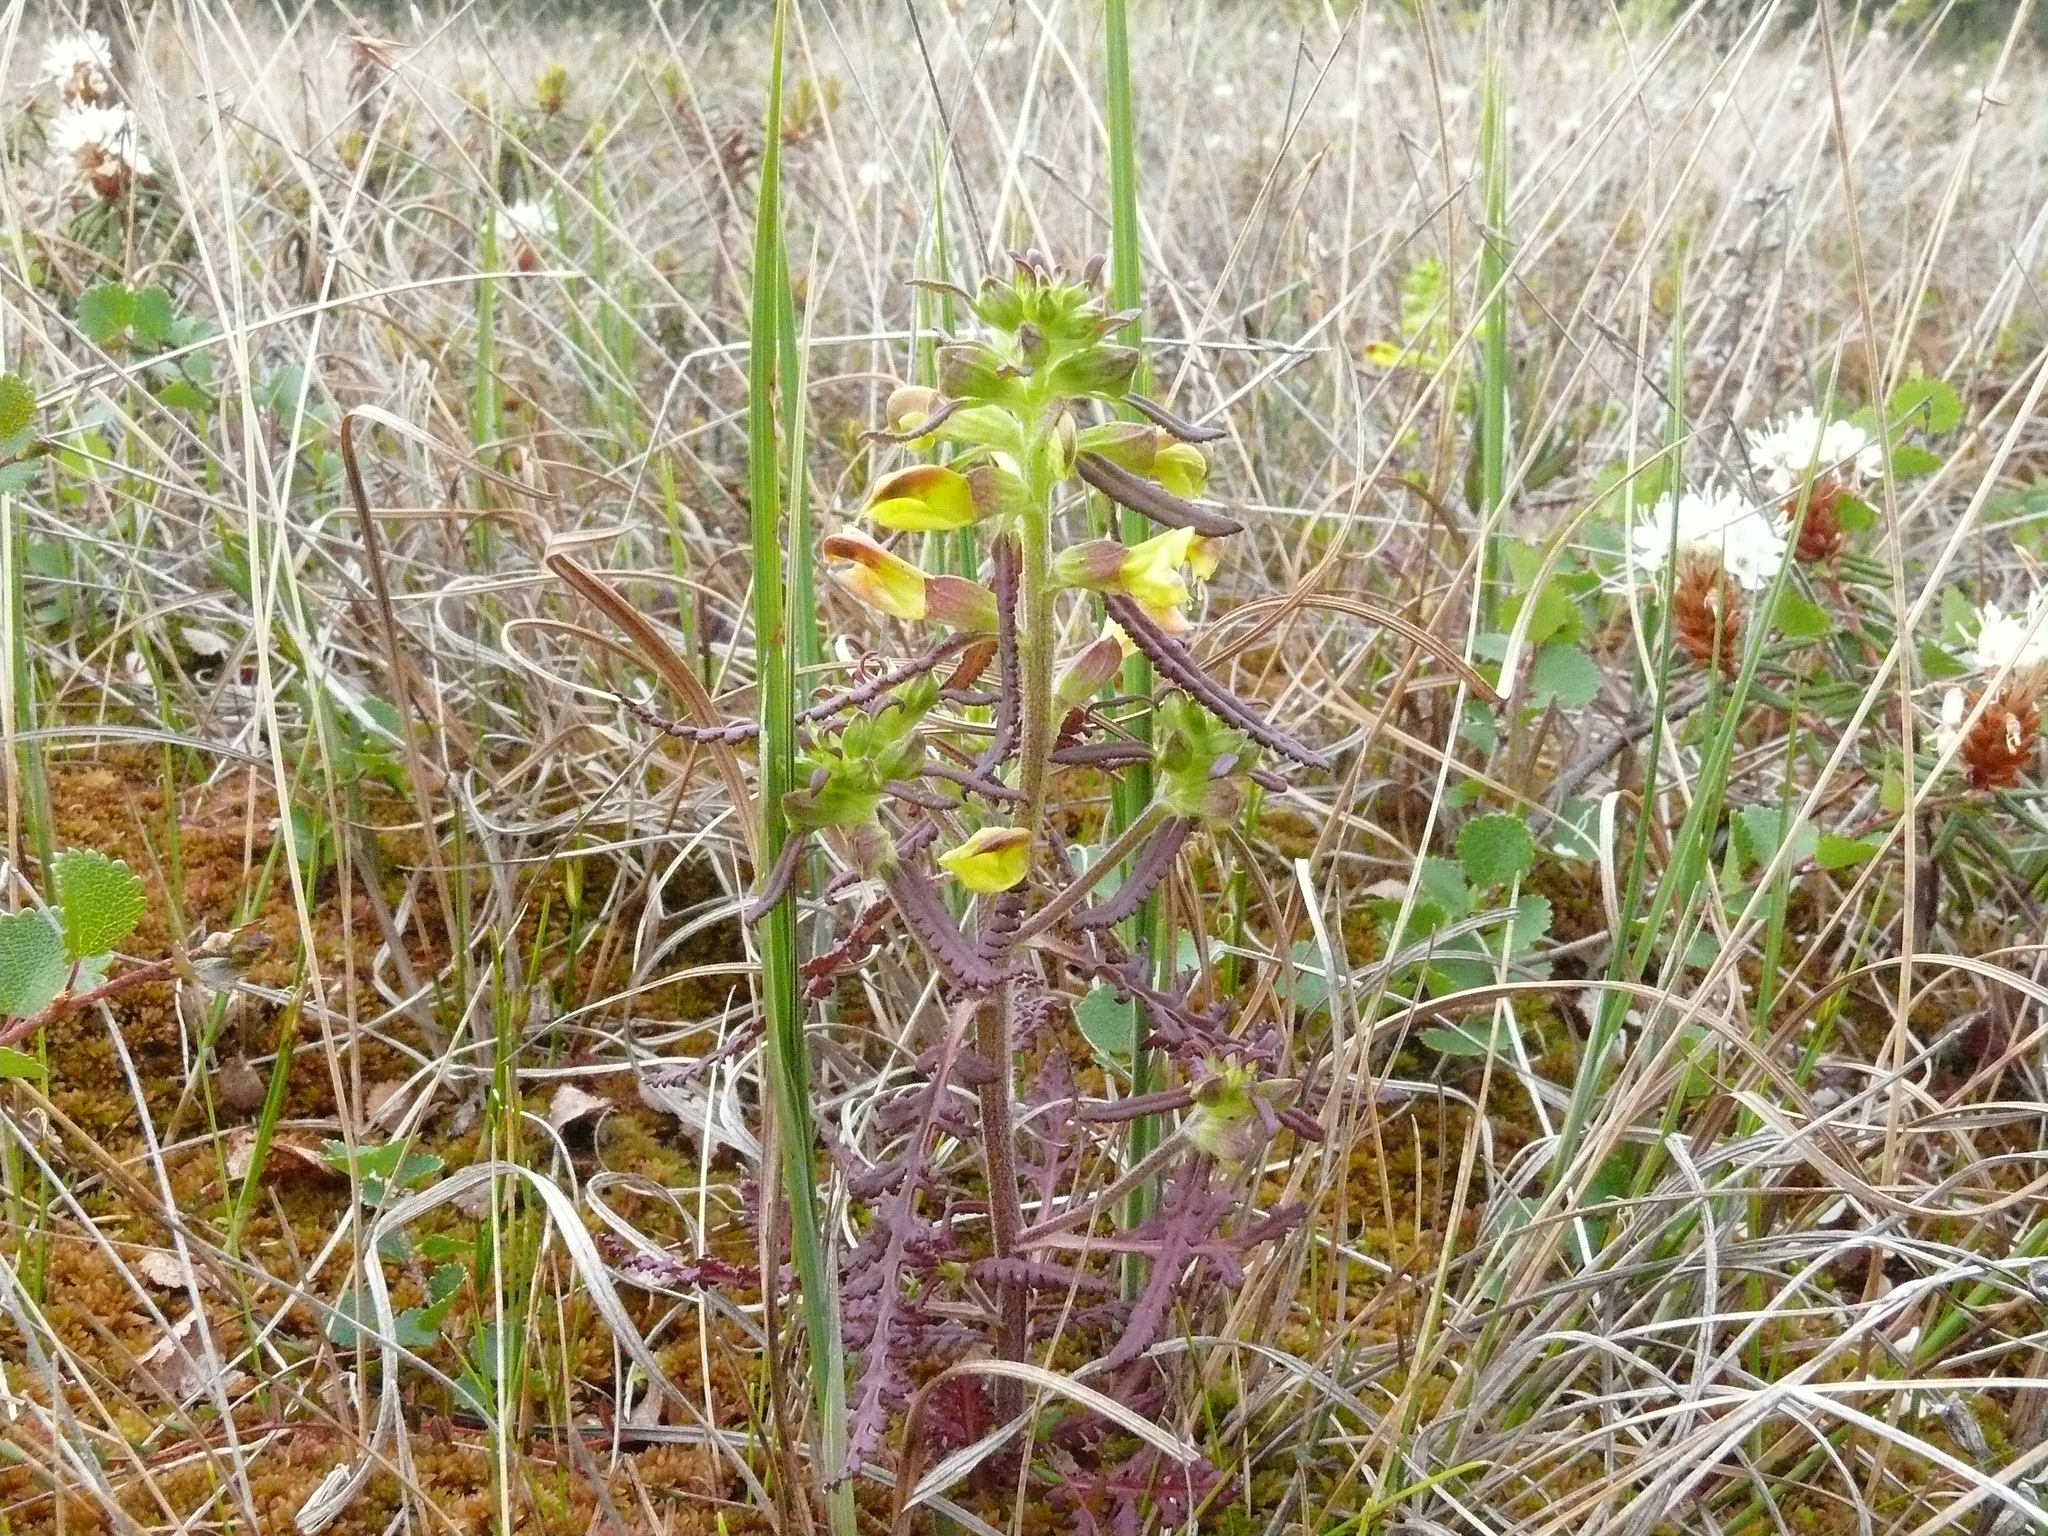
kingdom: Plantae
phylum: Tracheophyta
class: Magnoliopsida
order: Lamiales
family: Orobanchaceae
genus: Pedicularis
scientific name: Pedicularis labradorica
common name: Labrador lousewort
